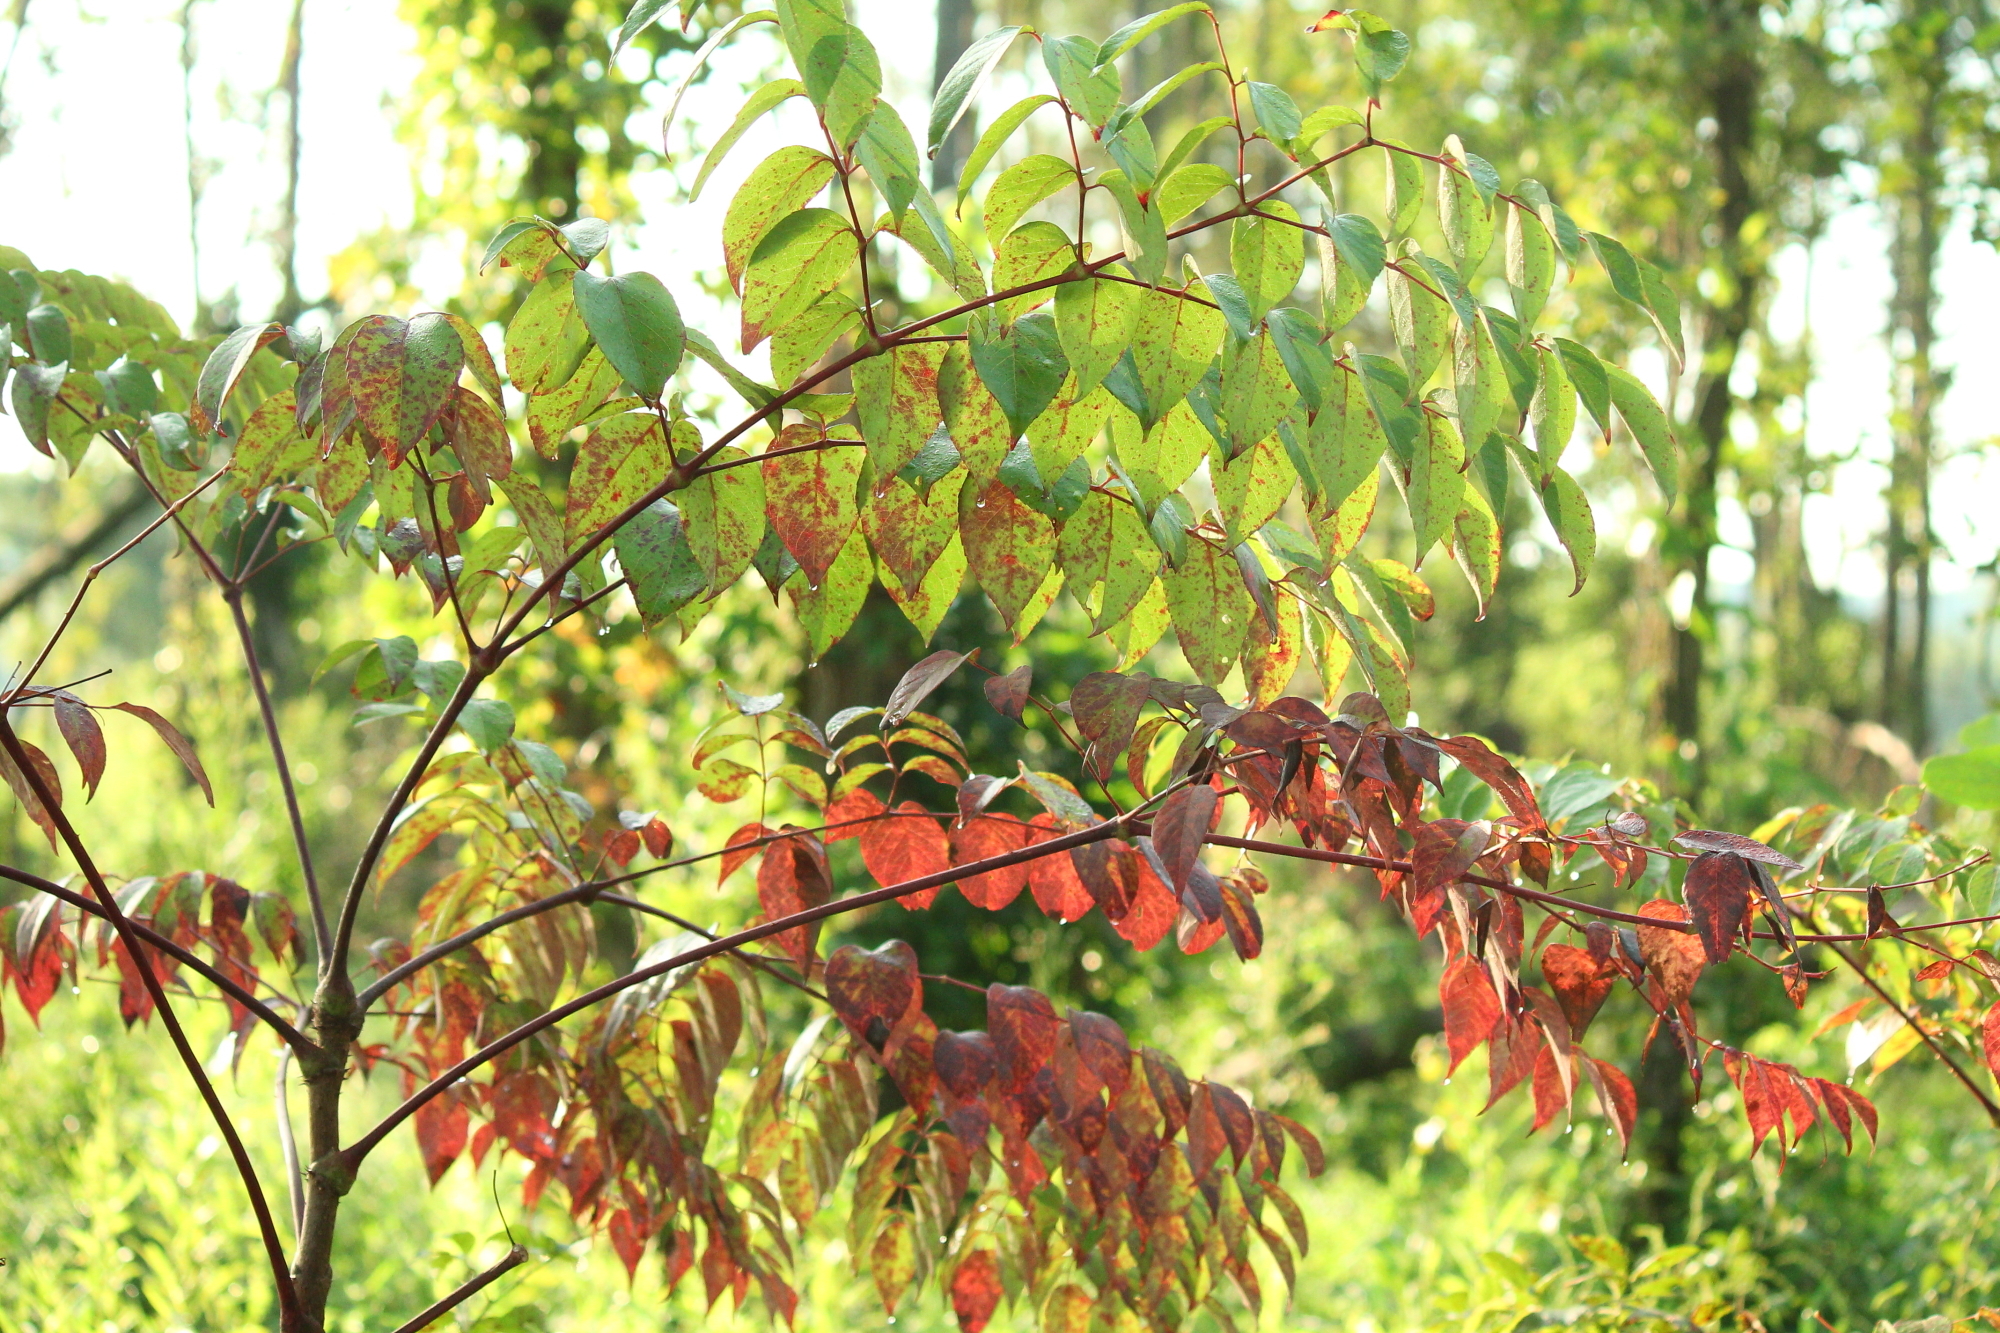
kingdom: Plantae
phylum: Tracheophyta
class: Magnoliopsida
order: Apiales
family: Araliaceae
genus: Aralia
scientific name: Aralia spinosa
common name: Hercules'-club
